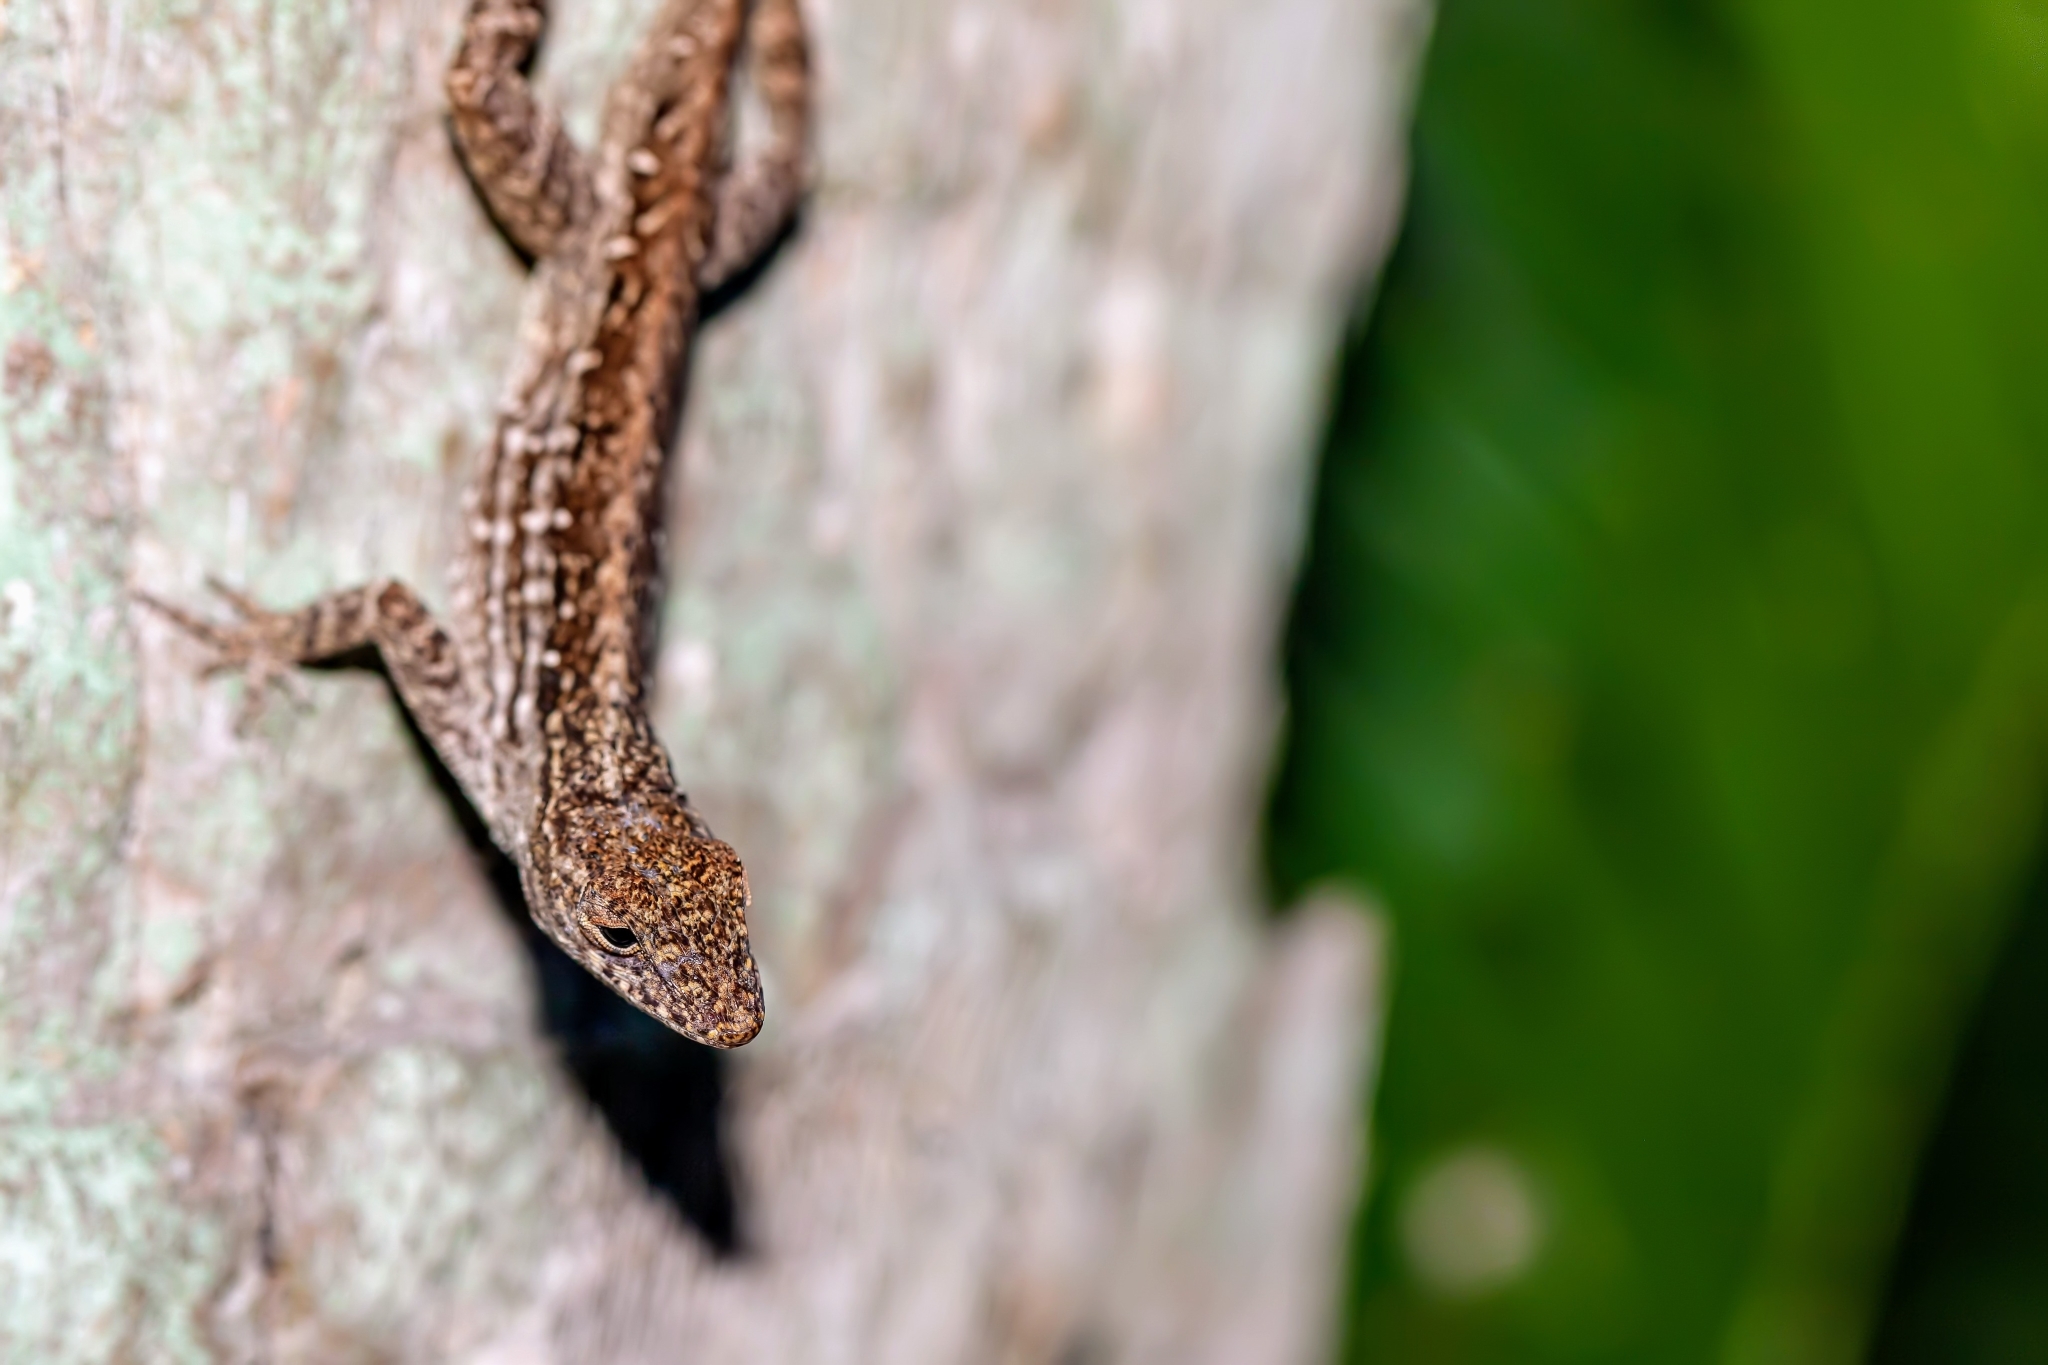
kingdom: Animalia
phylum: Chordata
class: Squamata
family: Dactyloidae
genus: Anolis
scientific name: Anolis sagrei
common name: Brown anole
